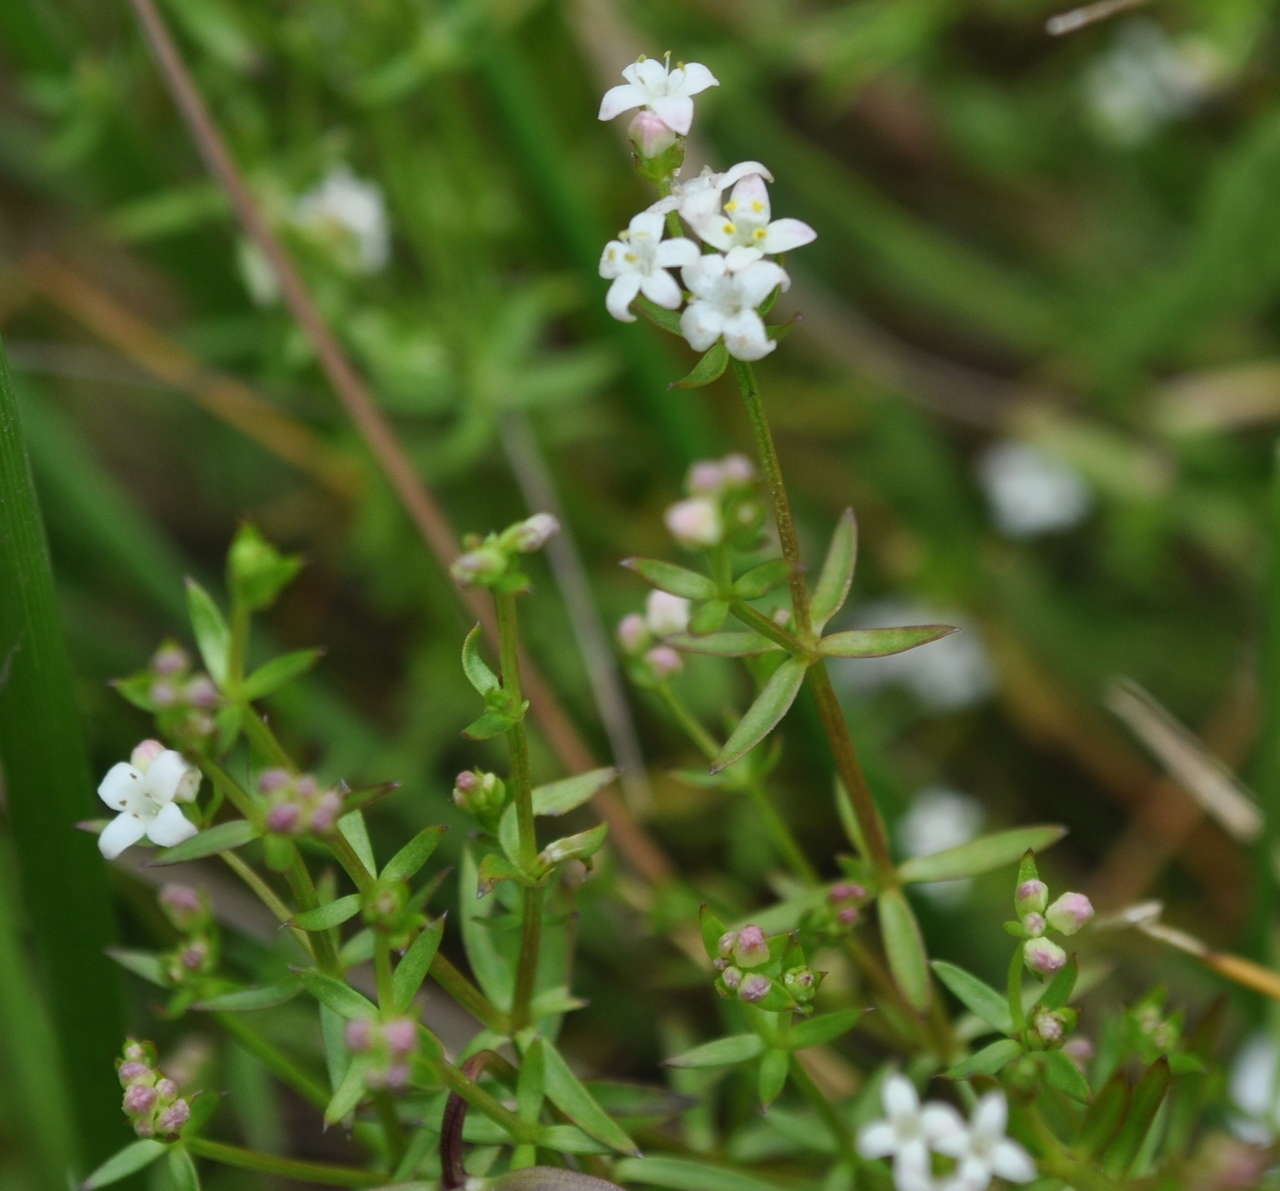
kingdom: Plantae
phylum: Tracheophyta
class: Magnoliopsida
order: Gentianales
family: Rubiaceae
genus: Asperula
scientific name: Asperula subsimplex
